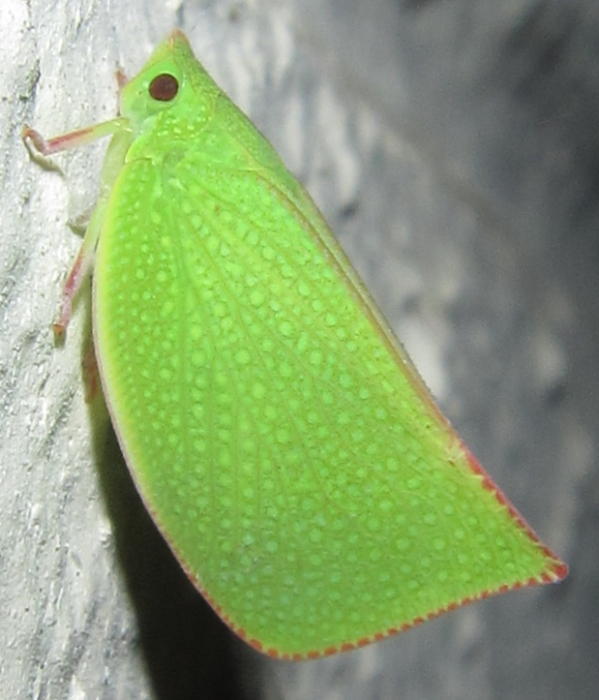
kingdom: Animalia
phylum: Arthropoda
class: Insecta
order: Hemiptera
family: Flatidae
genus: Siphanta
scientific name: Siphanta acuta
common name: Torpedo bug
